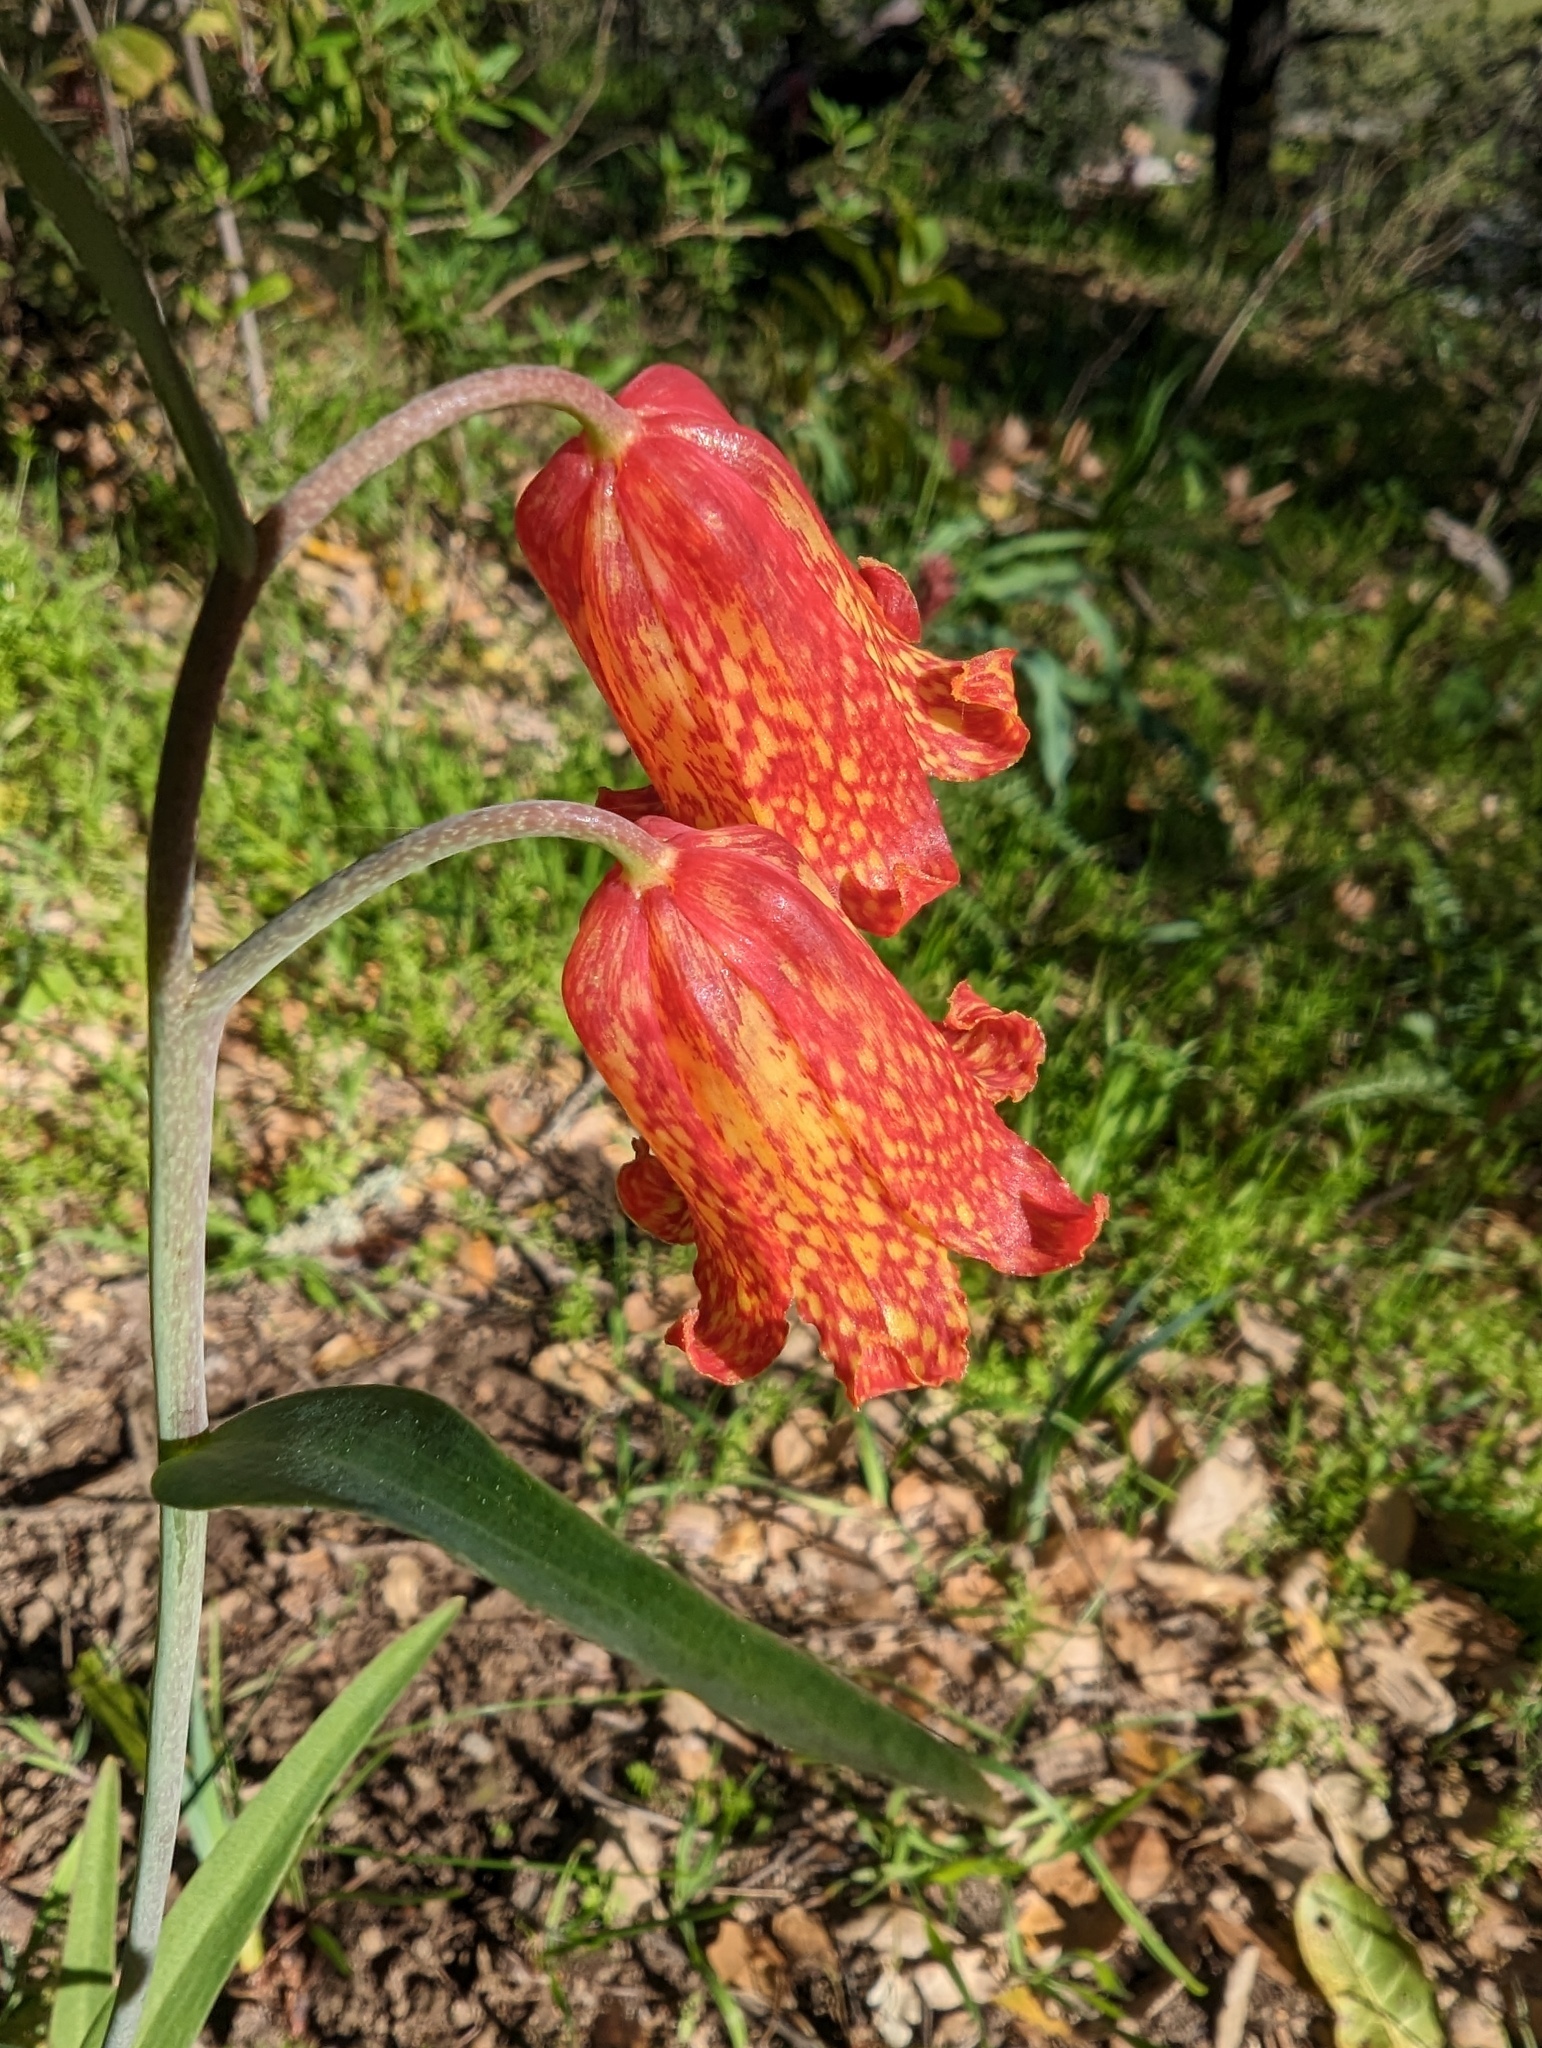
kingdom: Plantae
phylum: Tracheophyta
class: Liliopsida
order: Liliales
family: Liliaceae
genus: Fritillaria
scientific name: Fritillaria recurva
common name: Scarlet fritillary
